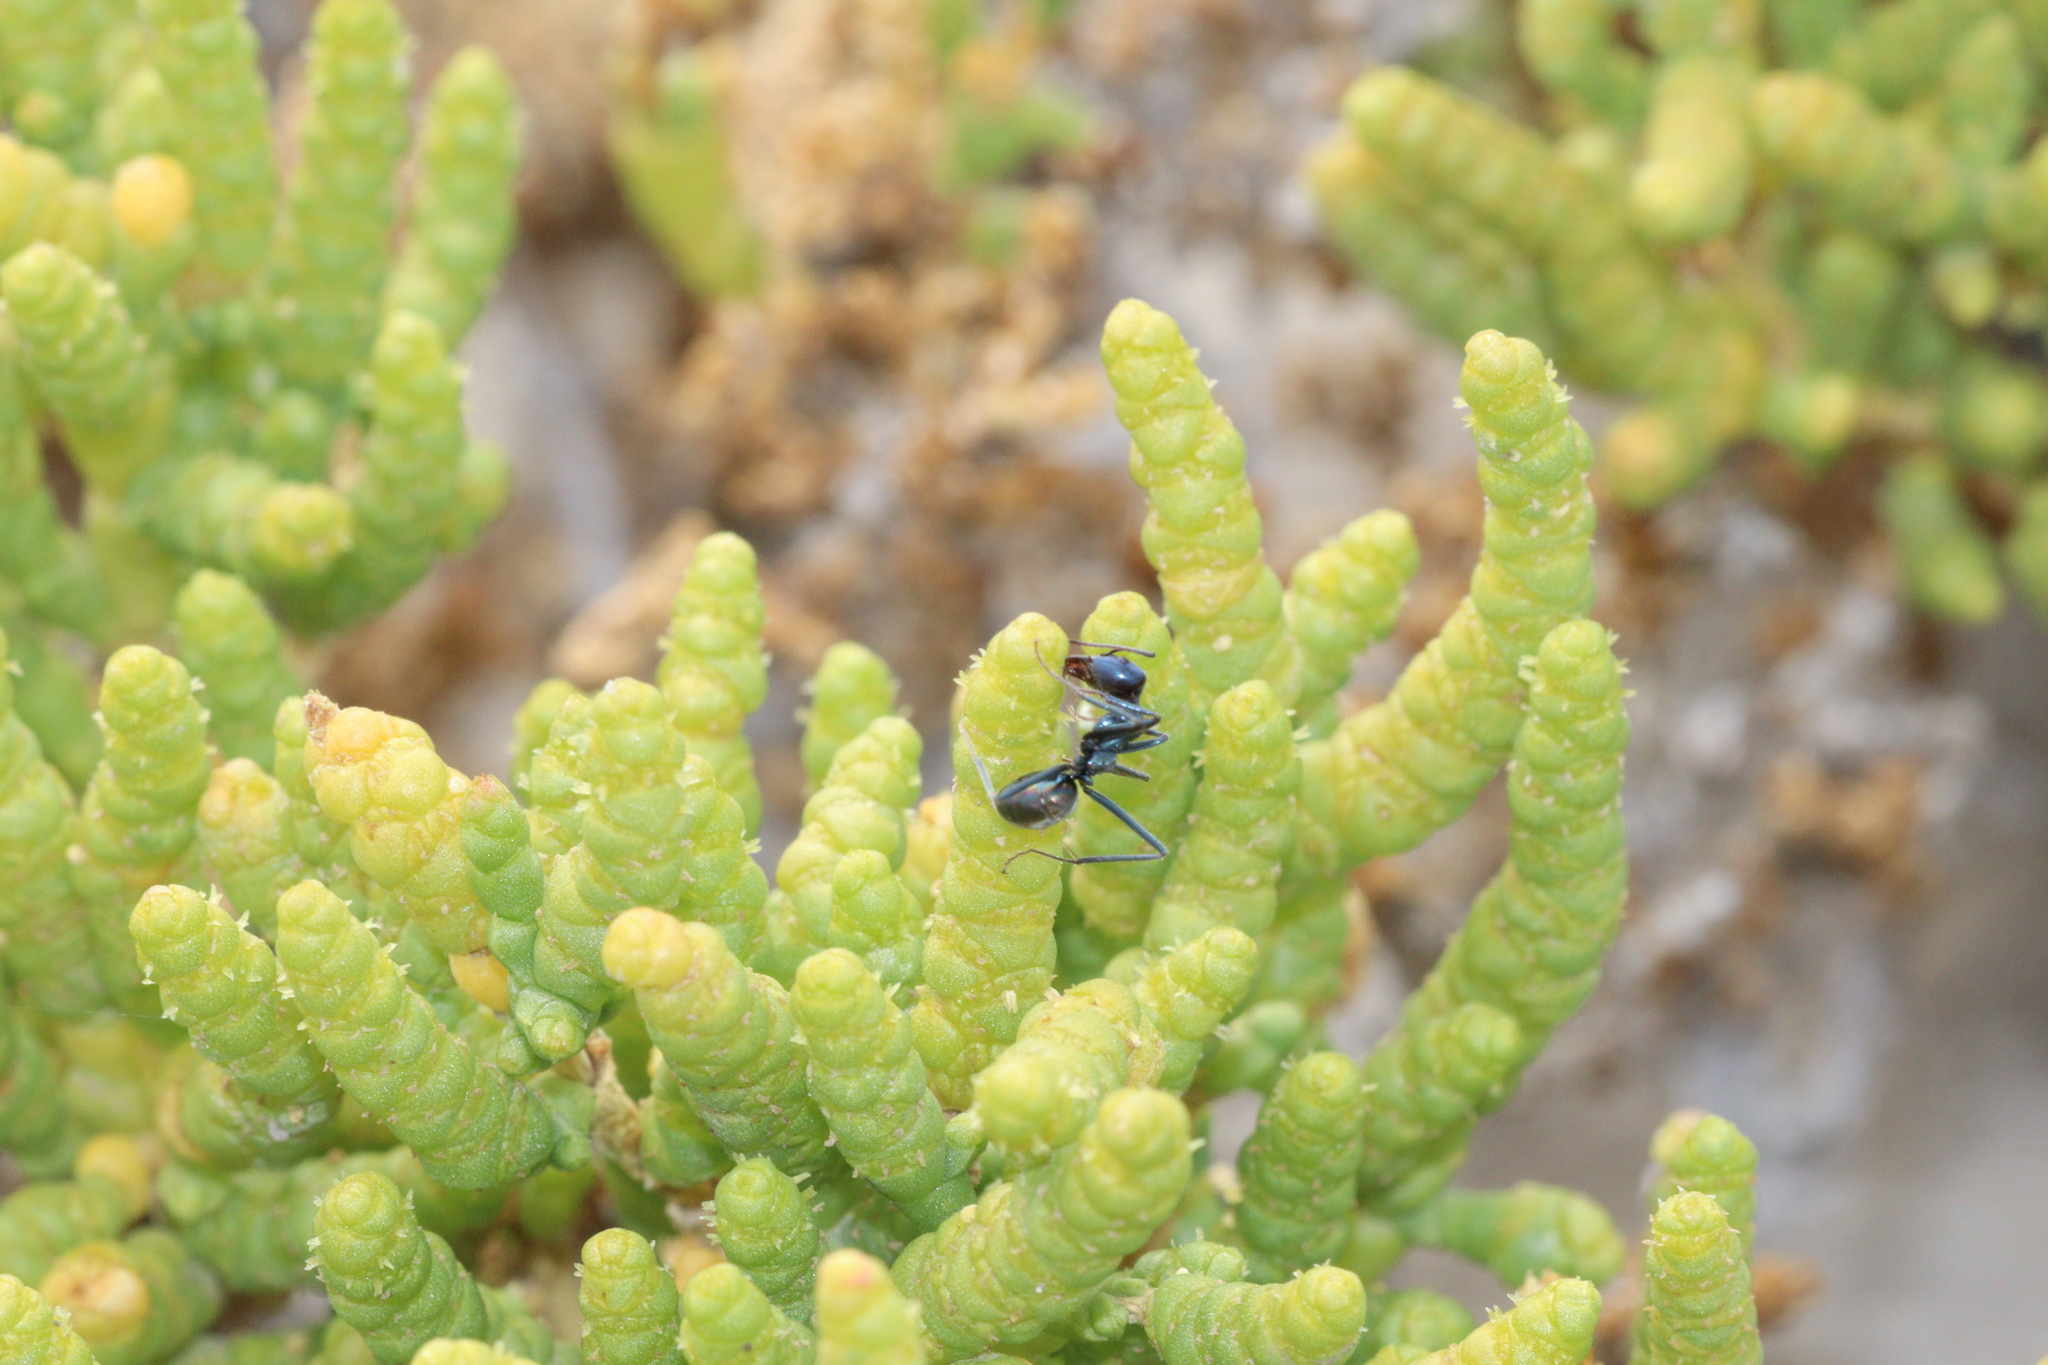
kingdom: Animalia
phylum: Arthropoda
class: Insecta
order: Hymenoptera
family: Formicidae
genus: Iridomyrmex
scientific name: Iridomyrmex lividus
